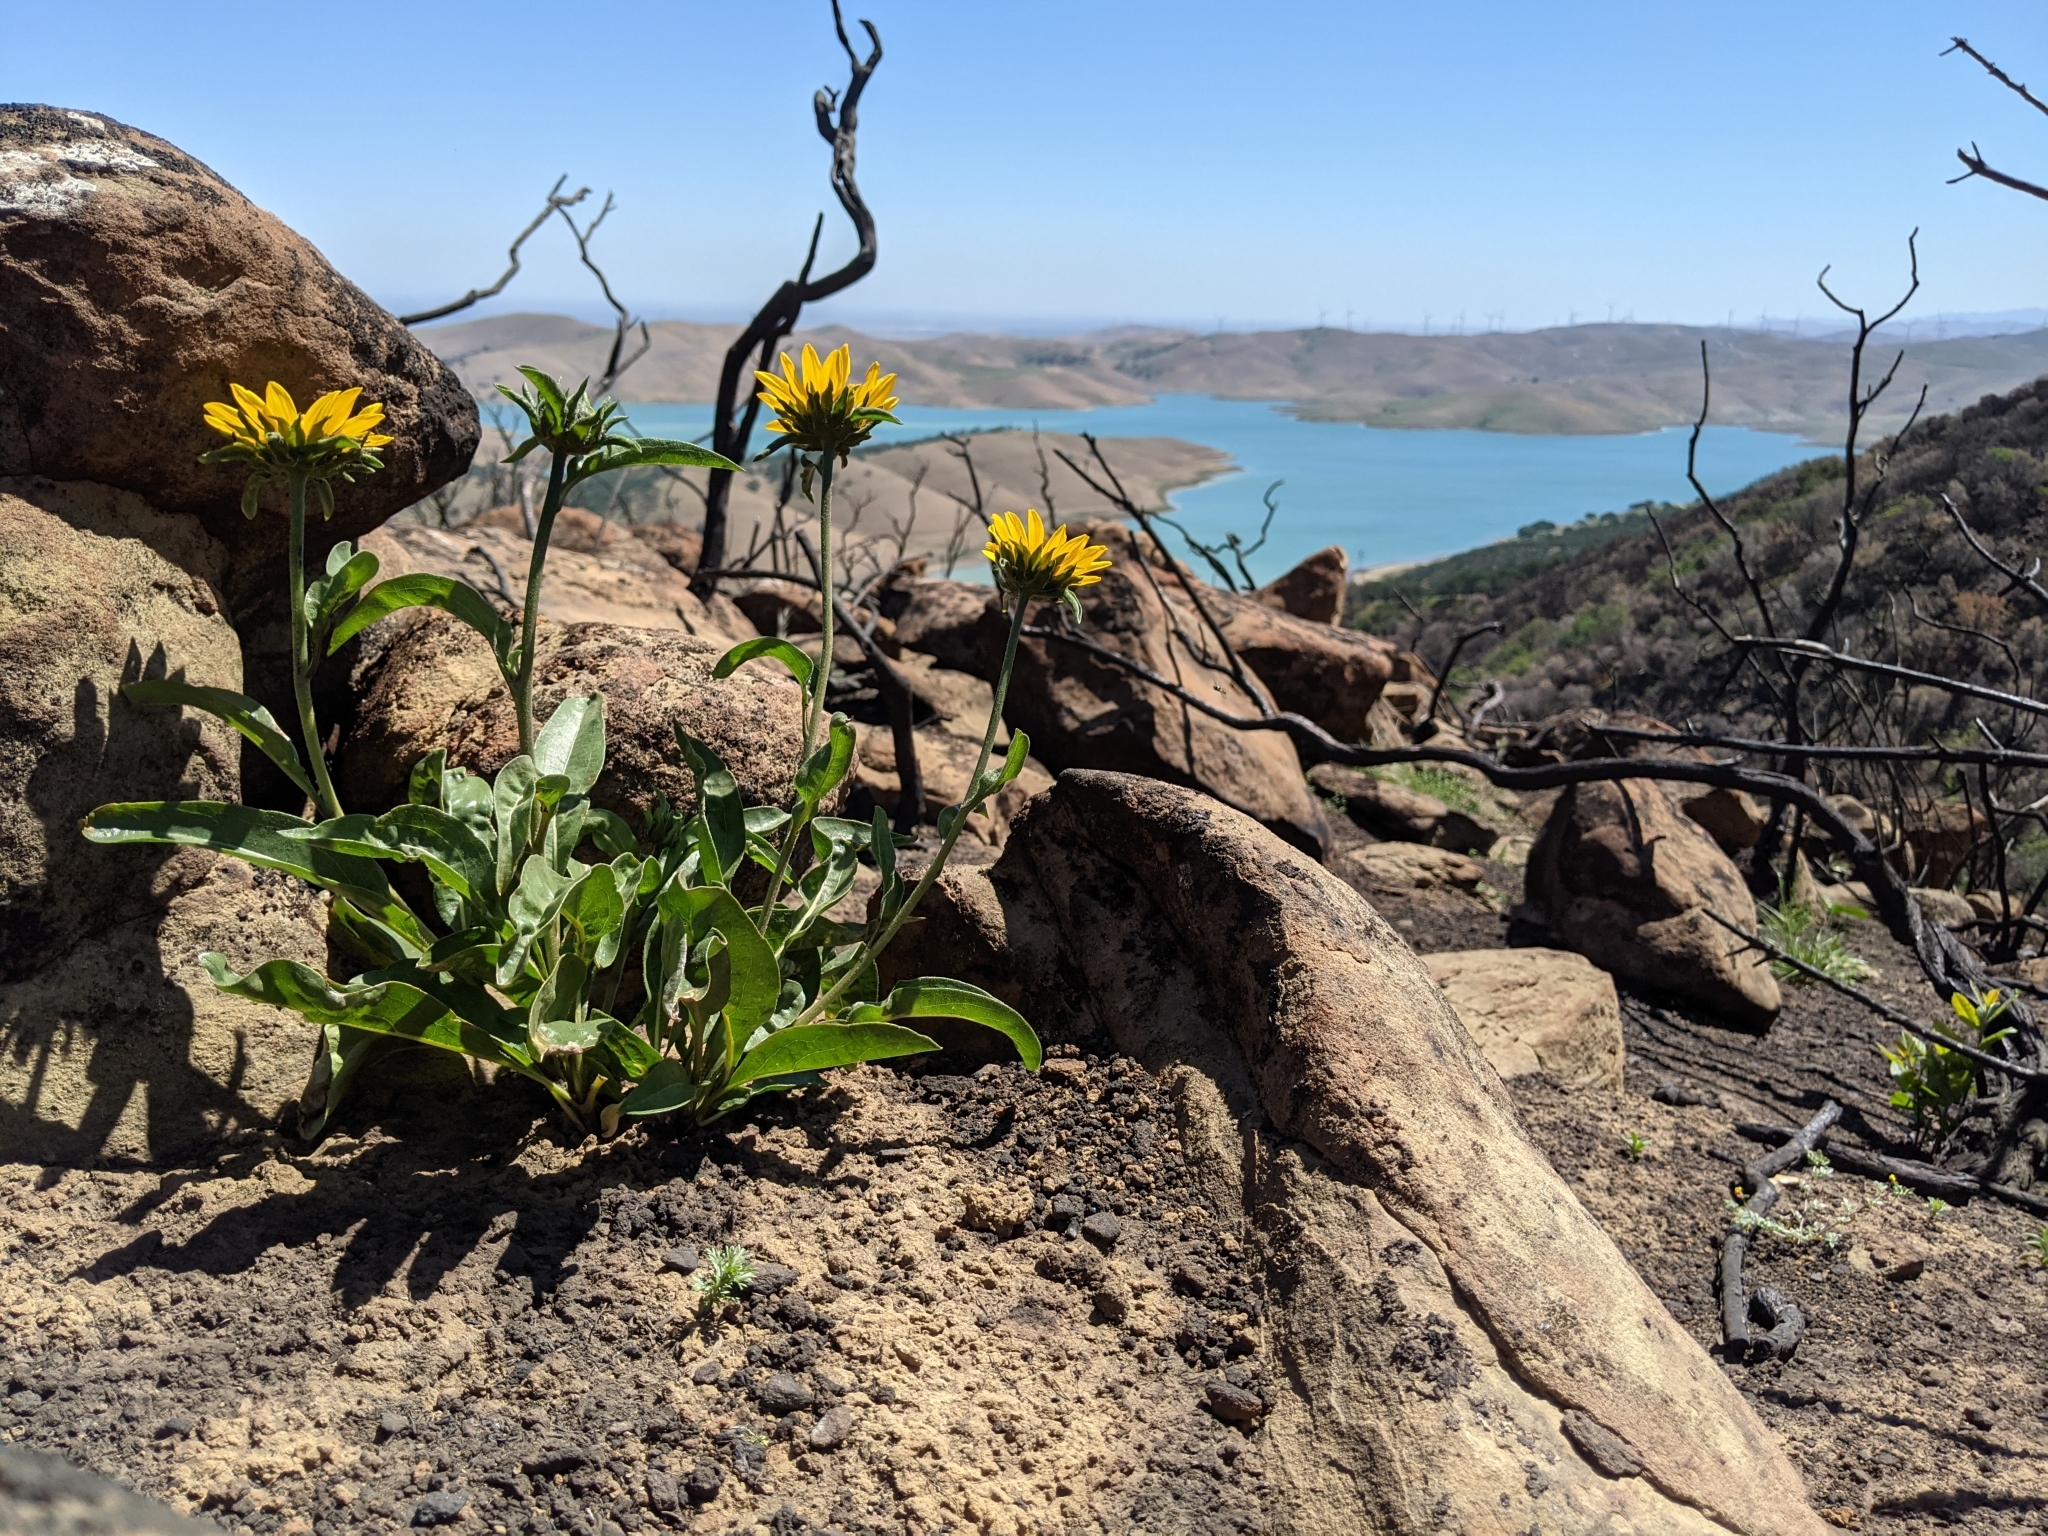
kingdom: Plantae
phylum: Tracheophyta
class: Magnoliopsida
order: Asterales
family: Asteraceae
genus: Helianthella
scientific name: Helianthella castanea
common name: Diablo helianthella
